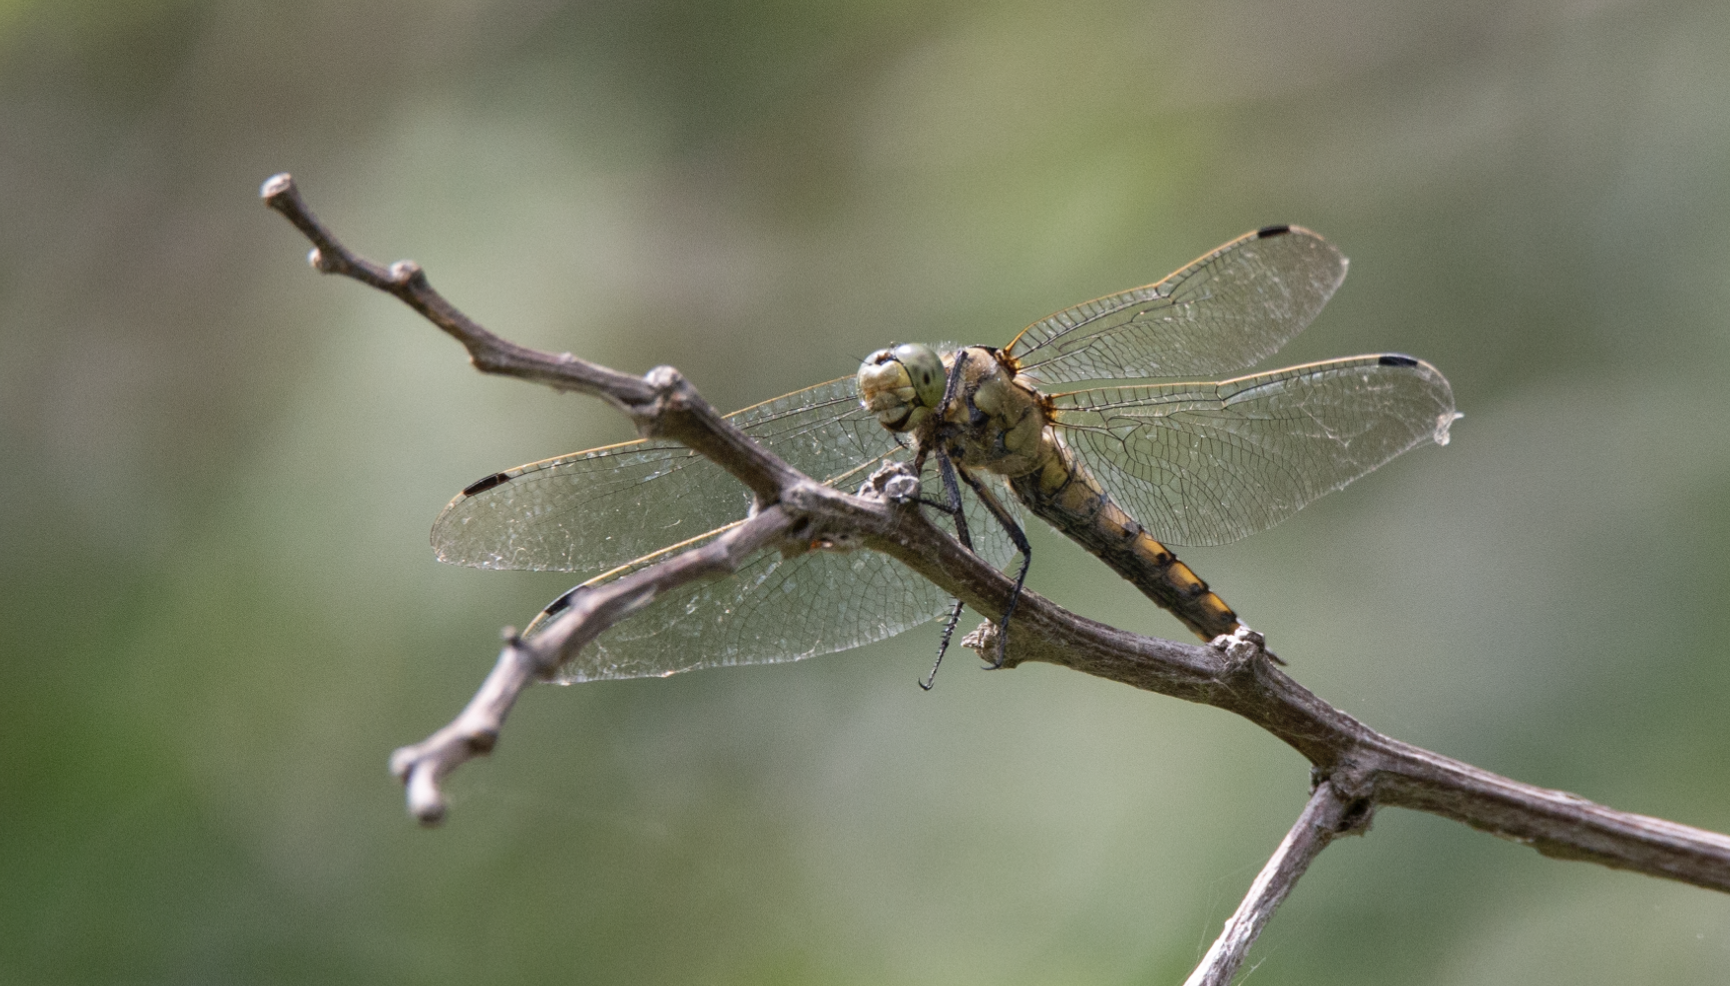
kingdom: Animalia
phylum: Arthropoda
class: Insecta
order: Odonata
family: Libellulidae
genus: Orthetrum
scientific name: Orthetrum cancellatum
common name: Black-tailed skimmer
